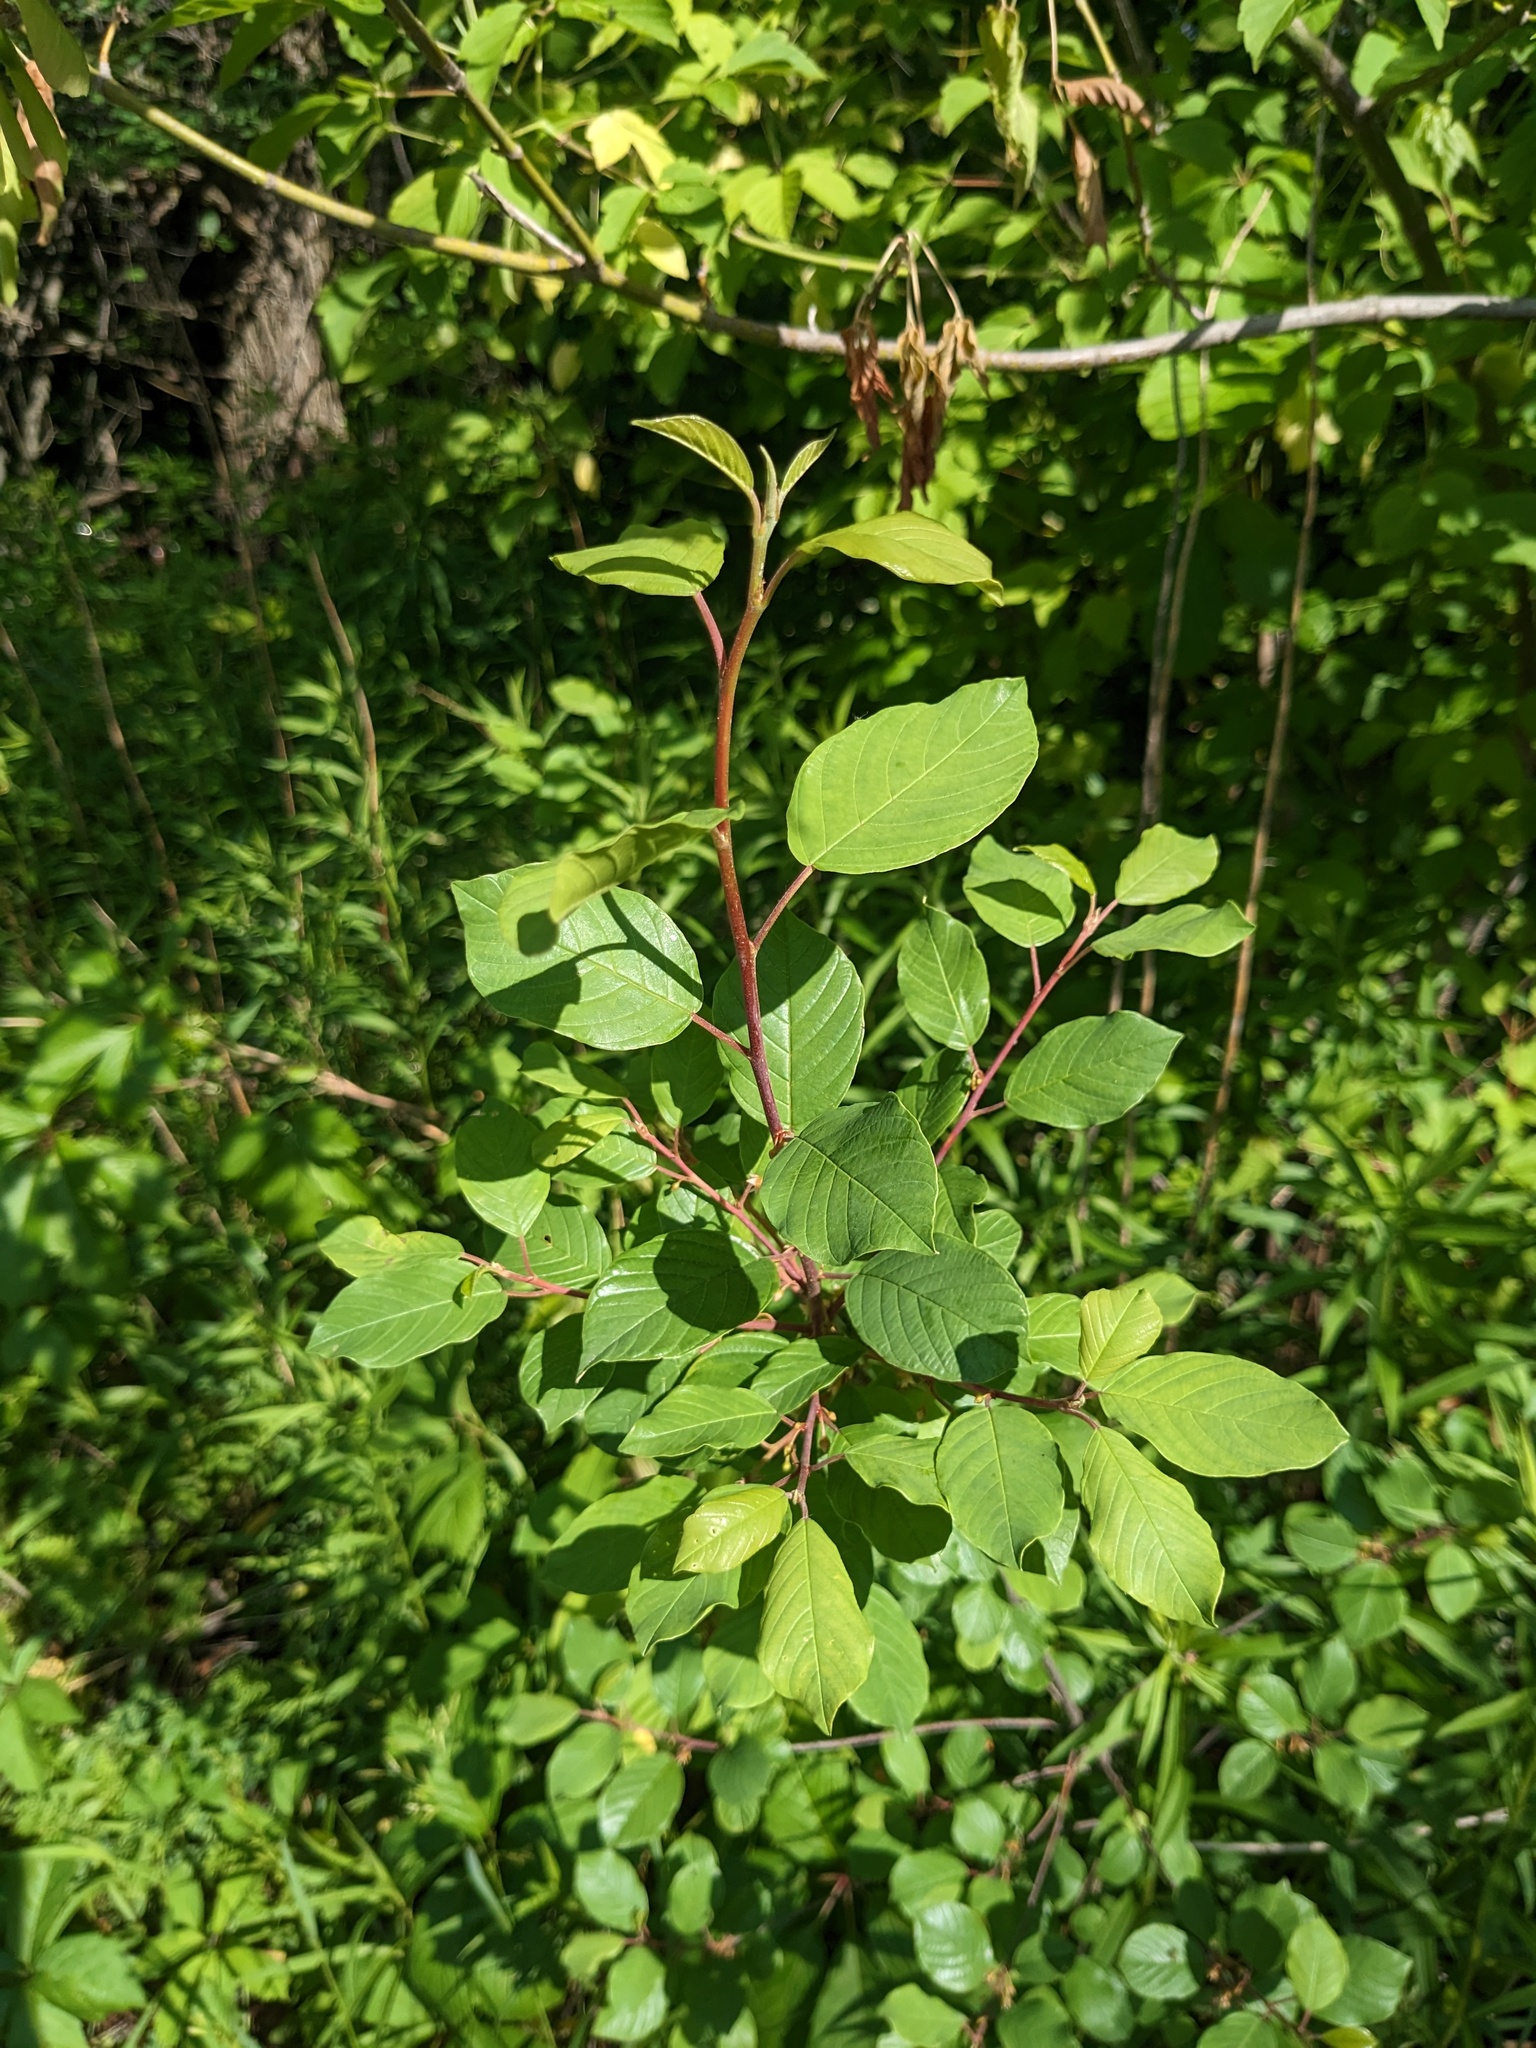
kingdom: Plantae
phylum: Tracheophyta
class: Magnoliopsida
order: Rosales
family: Rhamnaceae
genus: Frangula
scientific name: Frangula alnus
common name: Alder buckthorn
